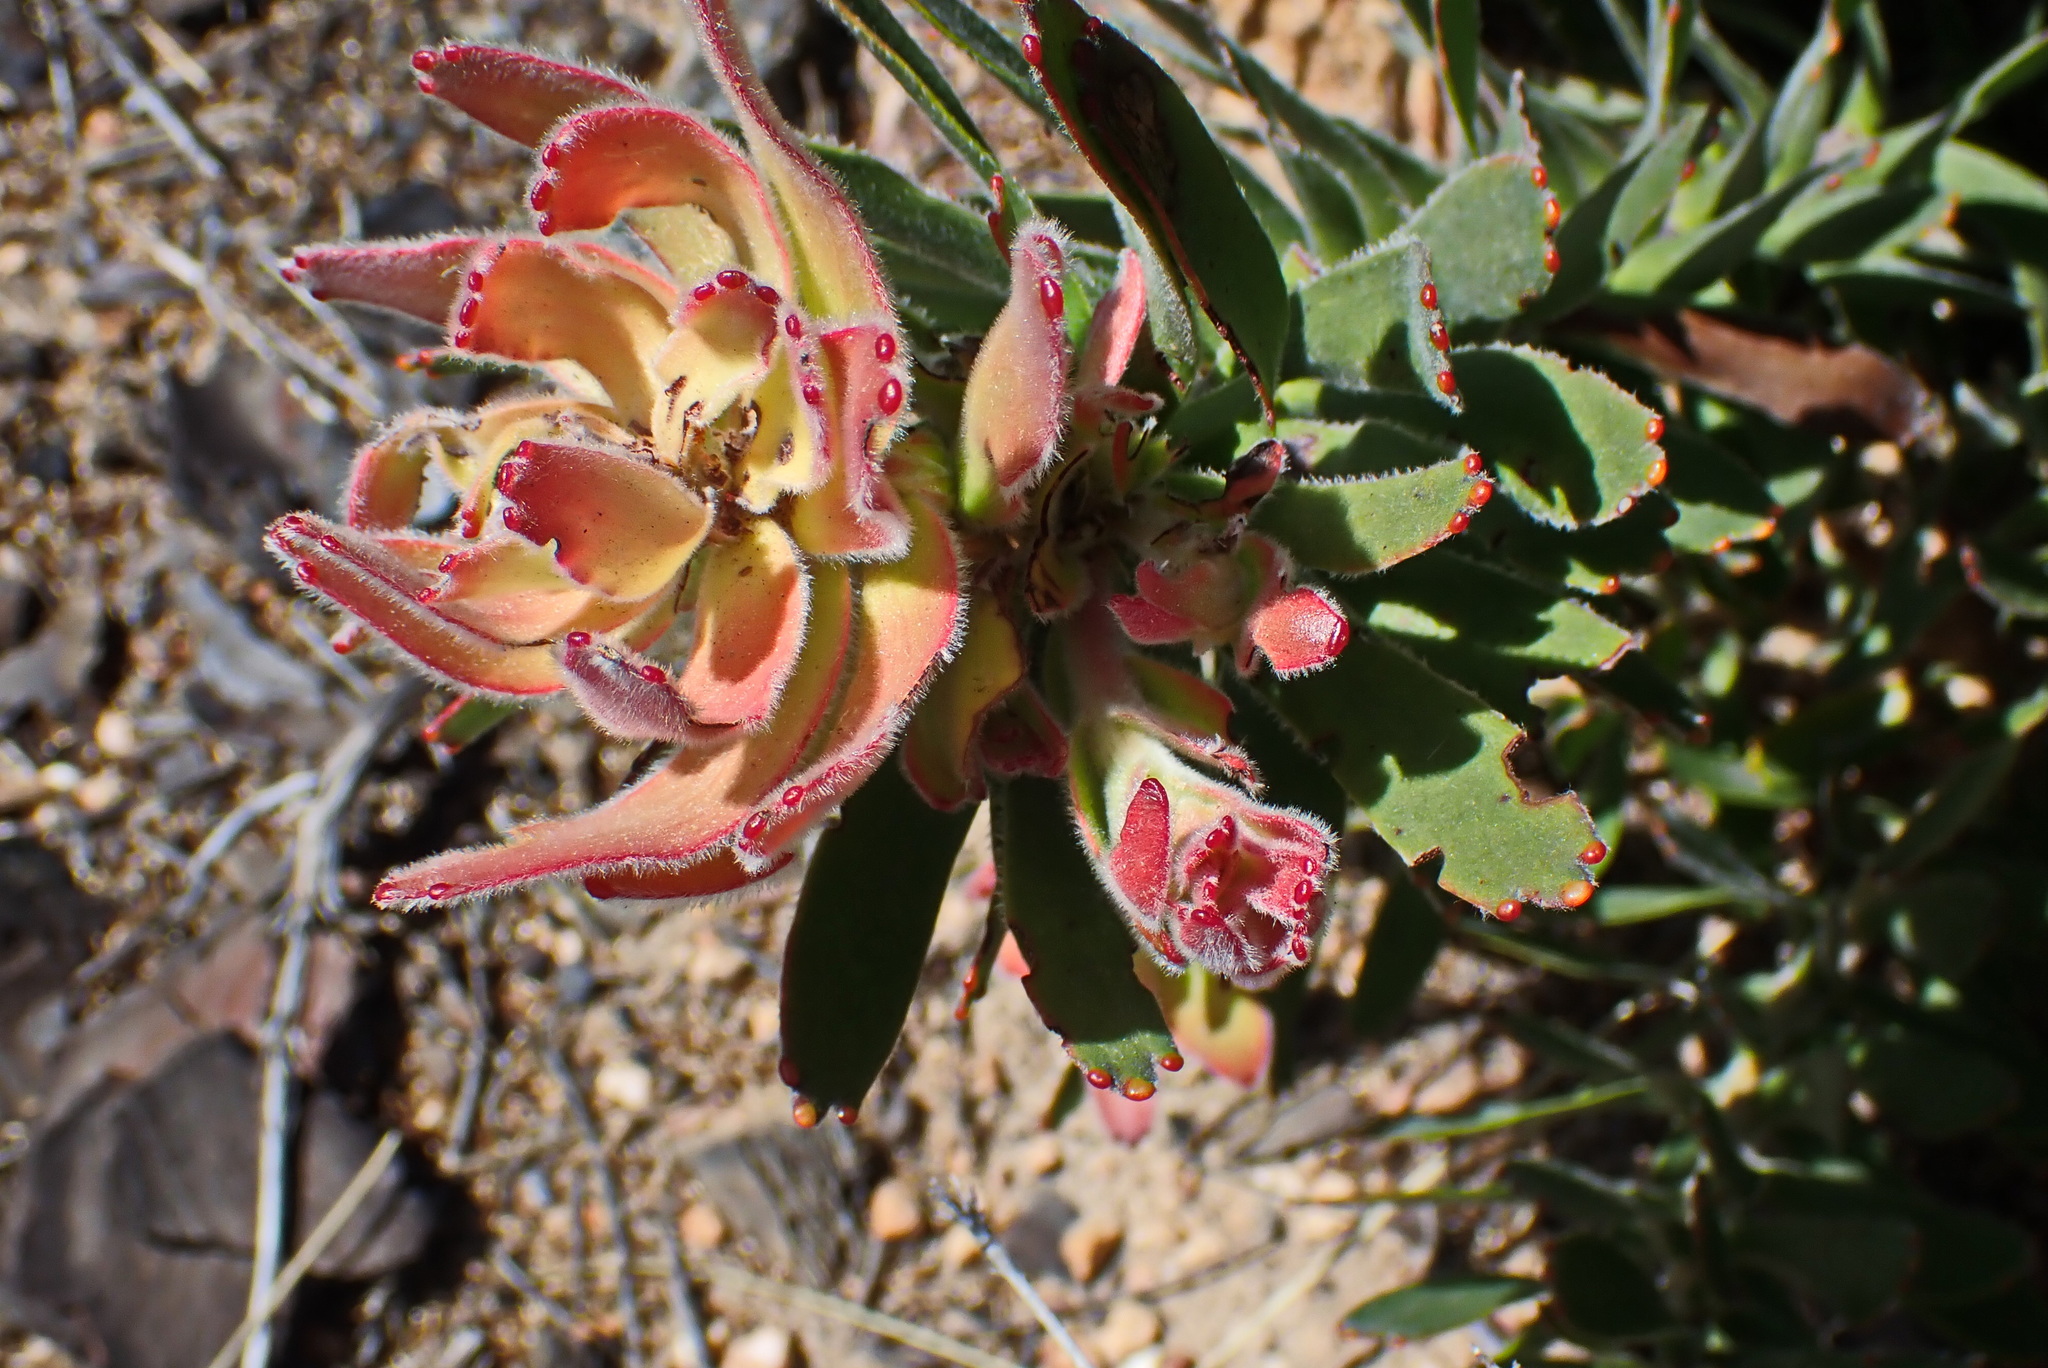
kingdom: Plantae
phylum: Tracheophyta
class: Magnoliopsida
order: Proteales
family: Proteaceae
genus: Mimetes
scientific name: Mimetes cucullatus
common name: Common pagoda
